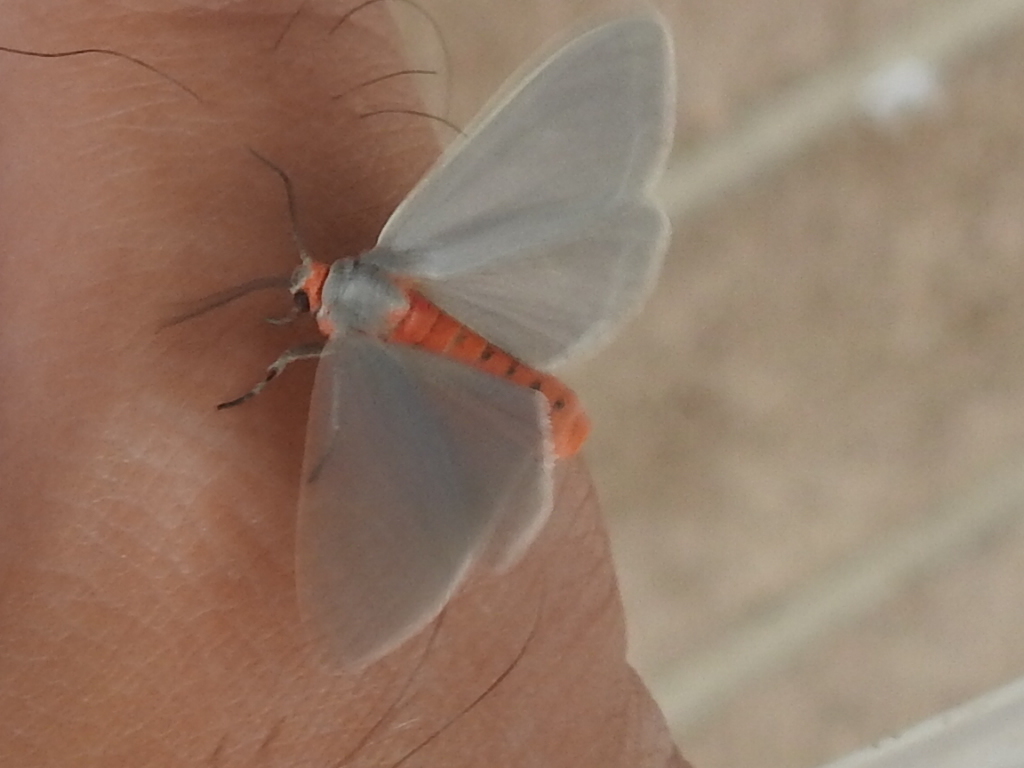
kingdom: Animalia
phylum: Arthropoda
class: Insecta
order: Lepidoptera
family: Erebidae
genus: Pygarctia
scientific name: Pygarctia murina
